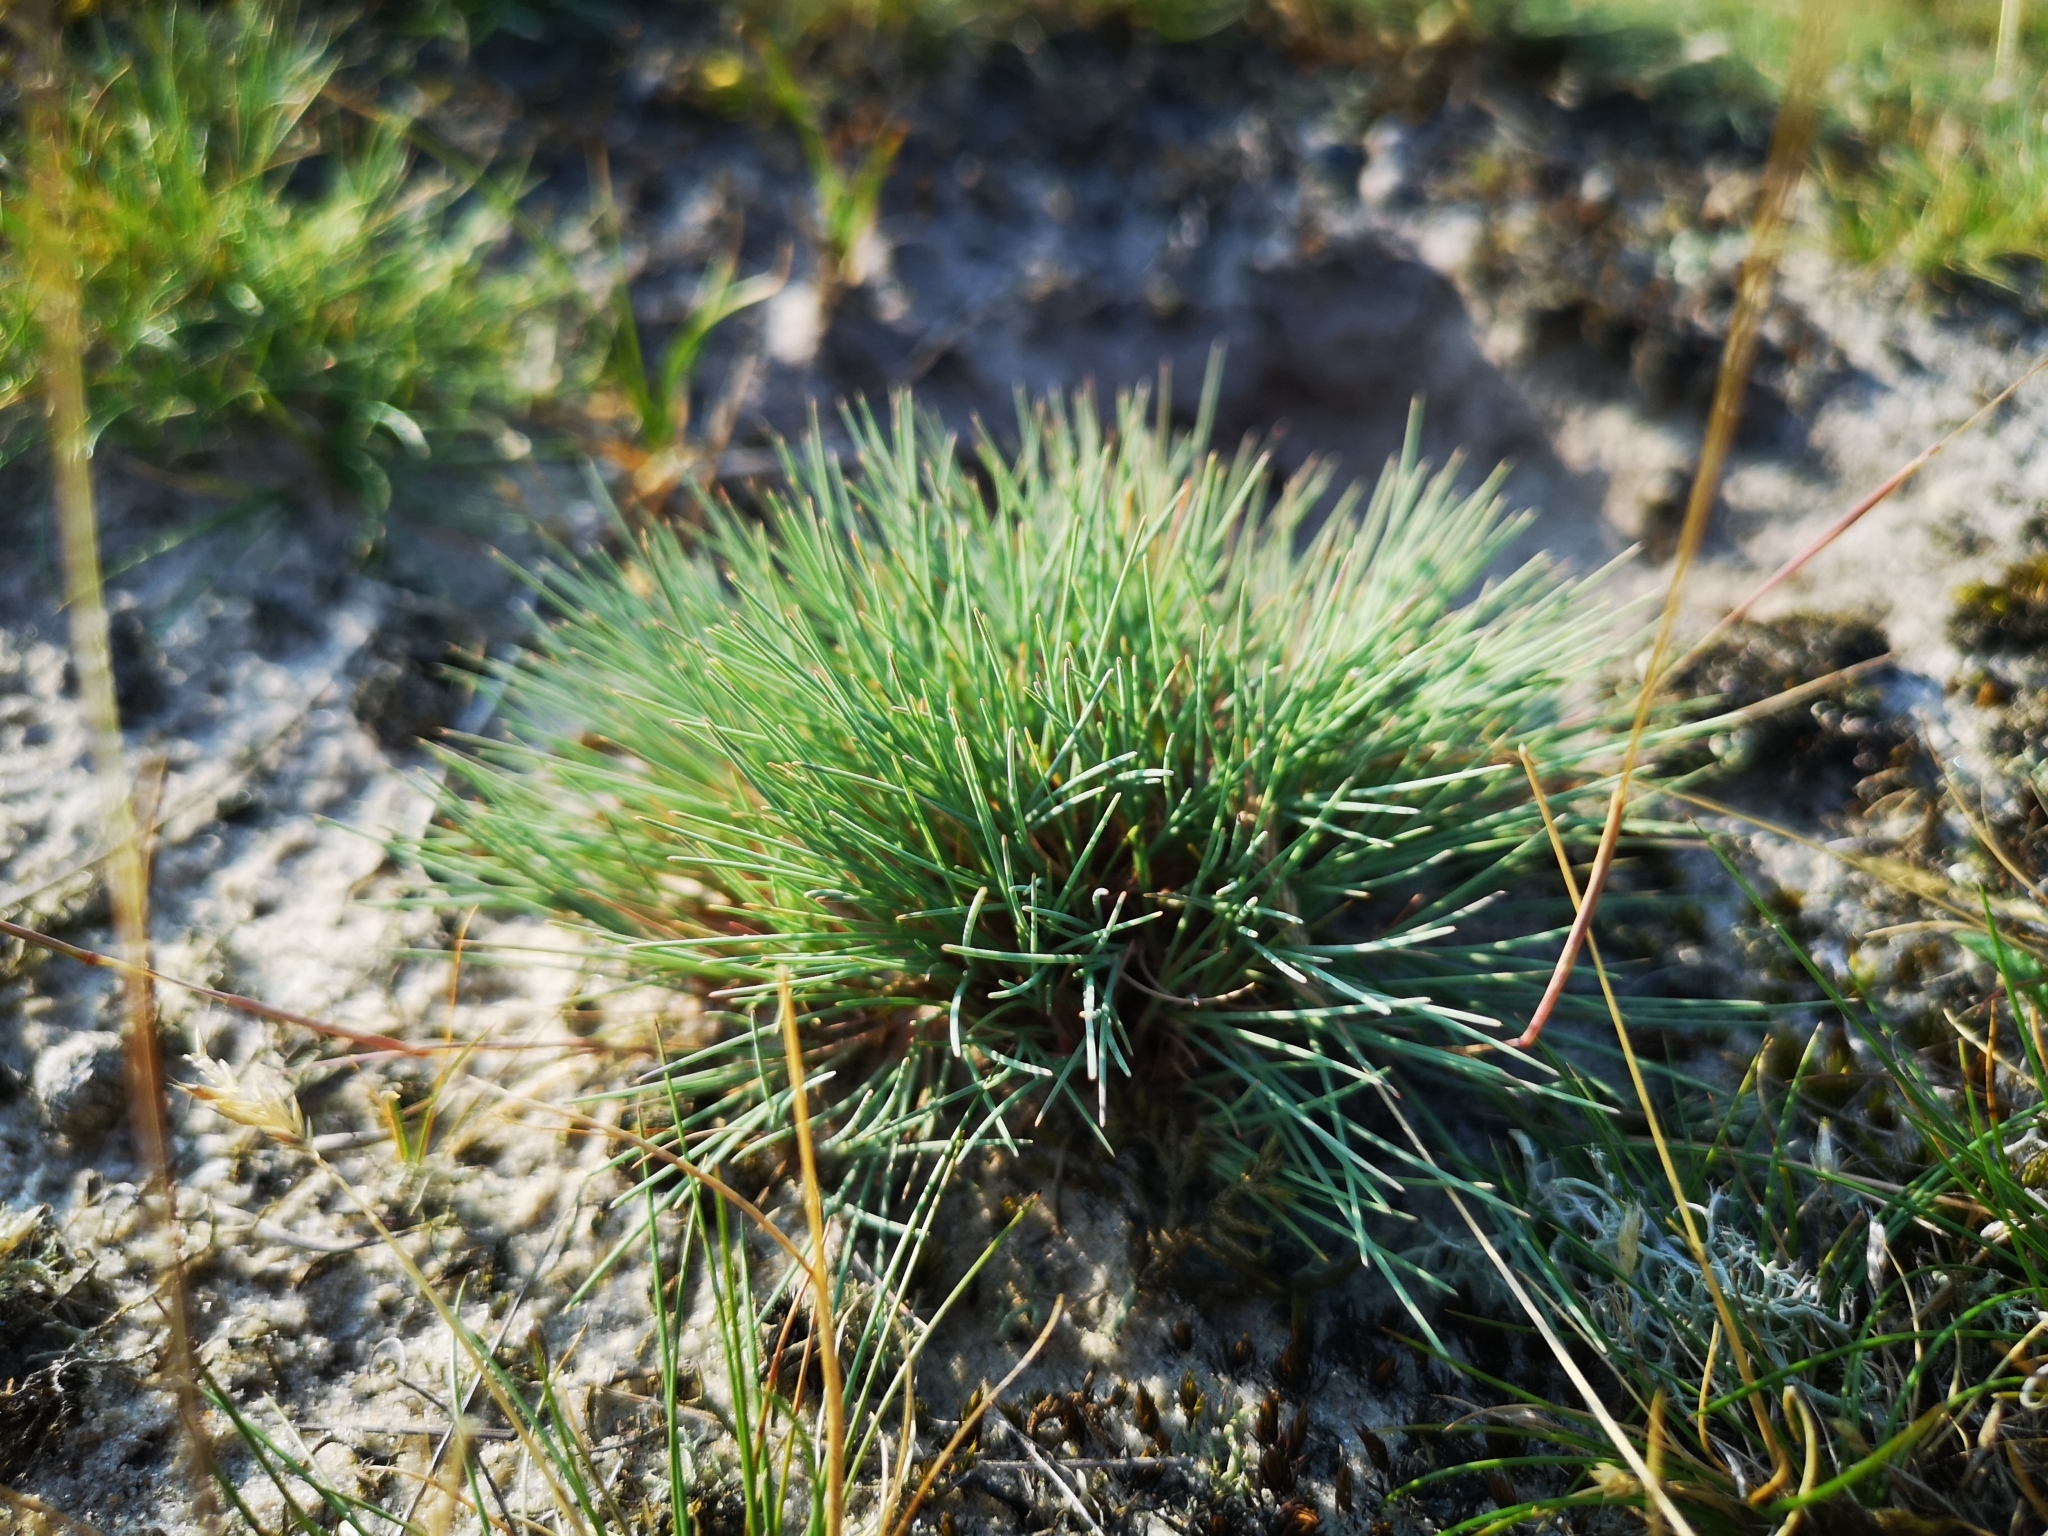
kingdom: Plantae
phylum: Tracheophyta
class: Liliopsida
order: Poales
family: Poaceae
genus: Corynephorus
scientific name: Corynephorus canescens
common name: Grey hair-grass
